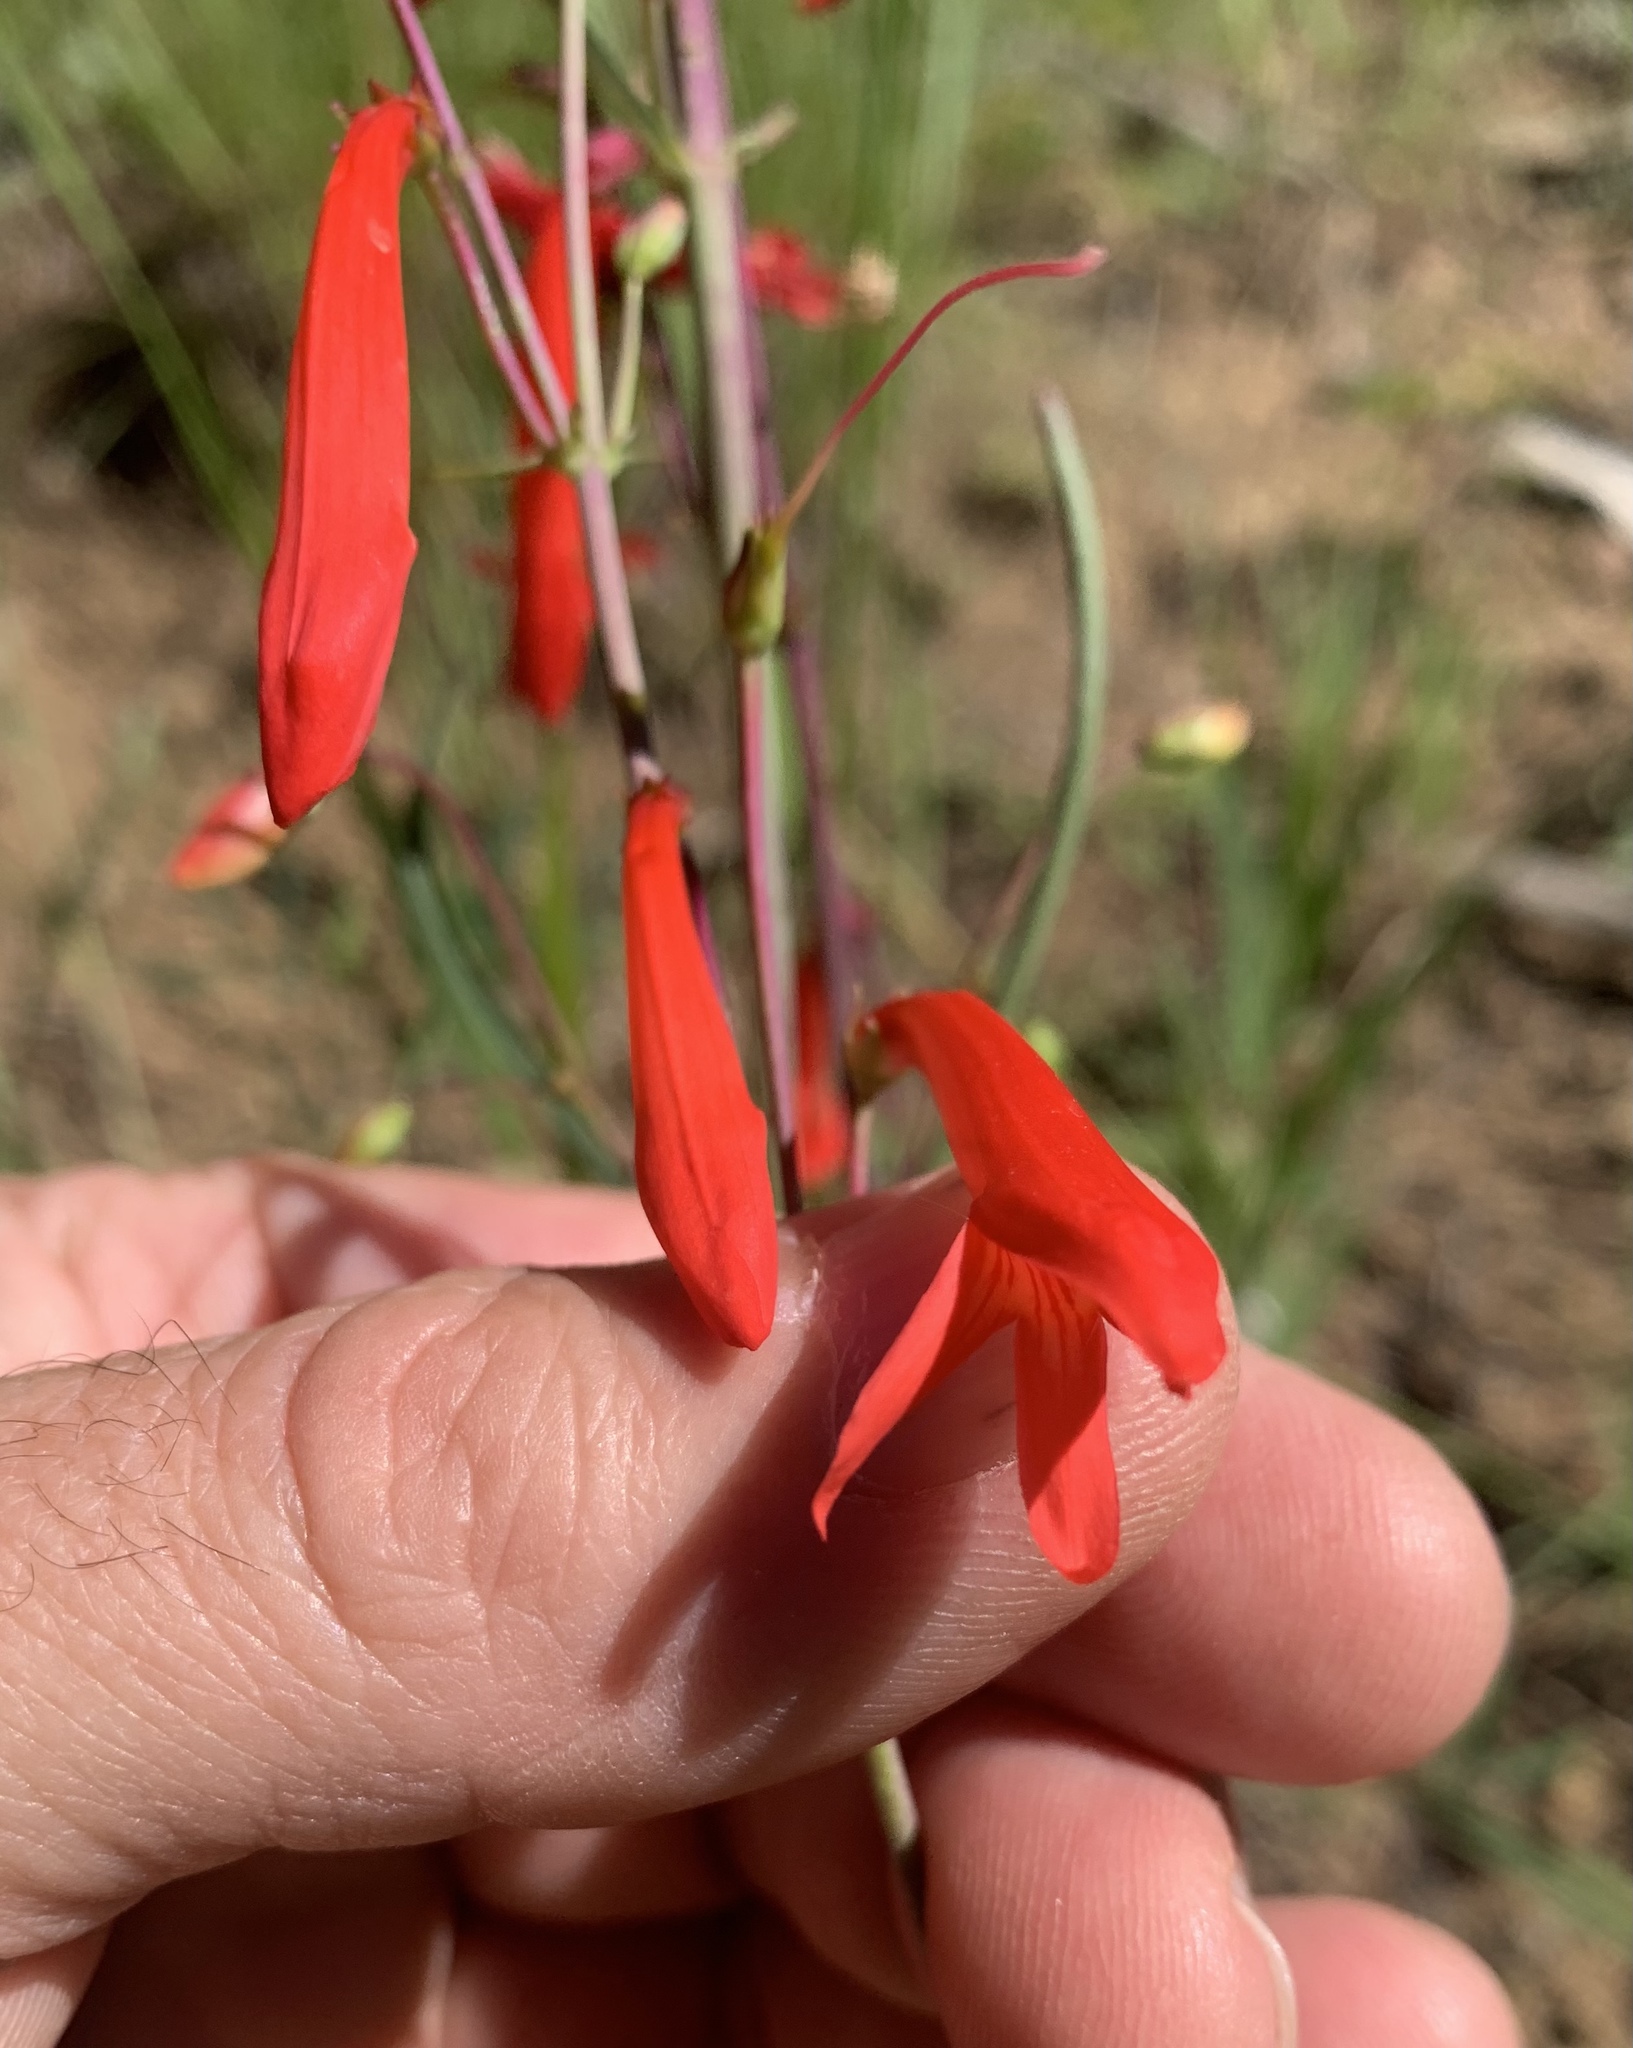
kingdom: Plantae
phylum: Tracheophyta
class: Magnoliopsida
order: Lamiales
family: Plantaginaceae
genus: Penstemon
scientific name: Penstemon barbatus
